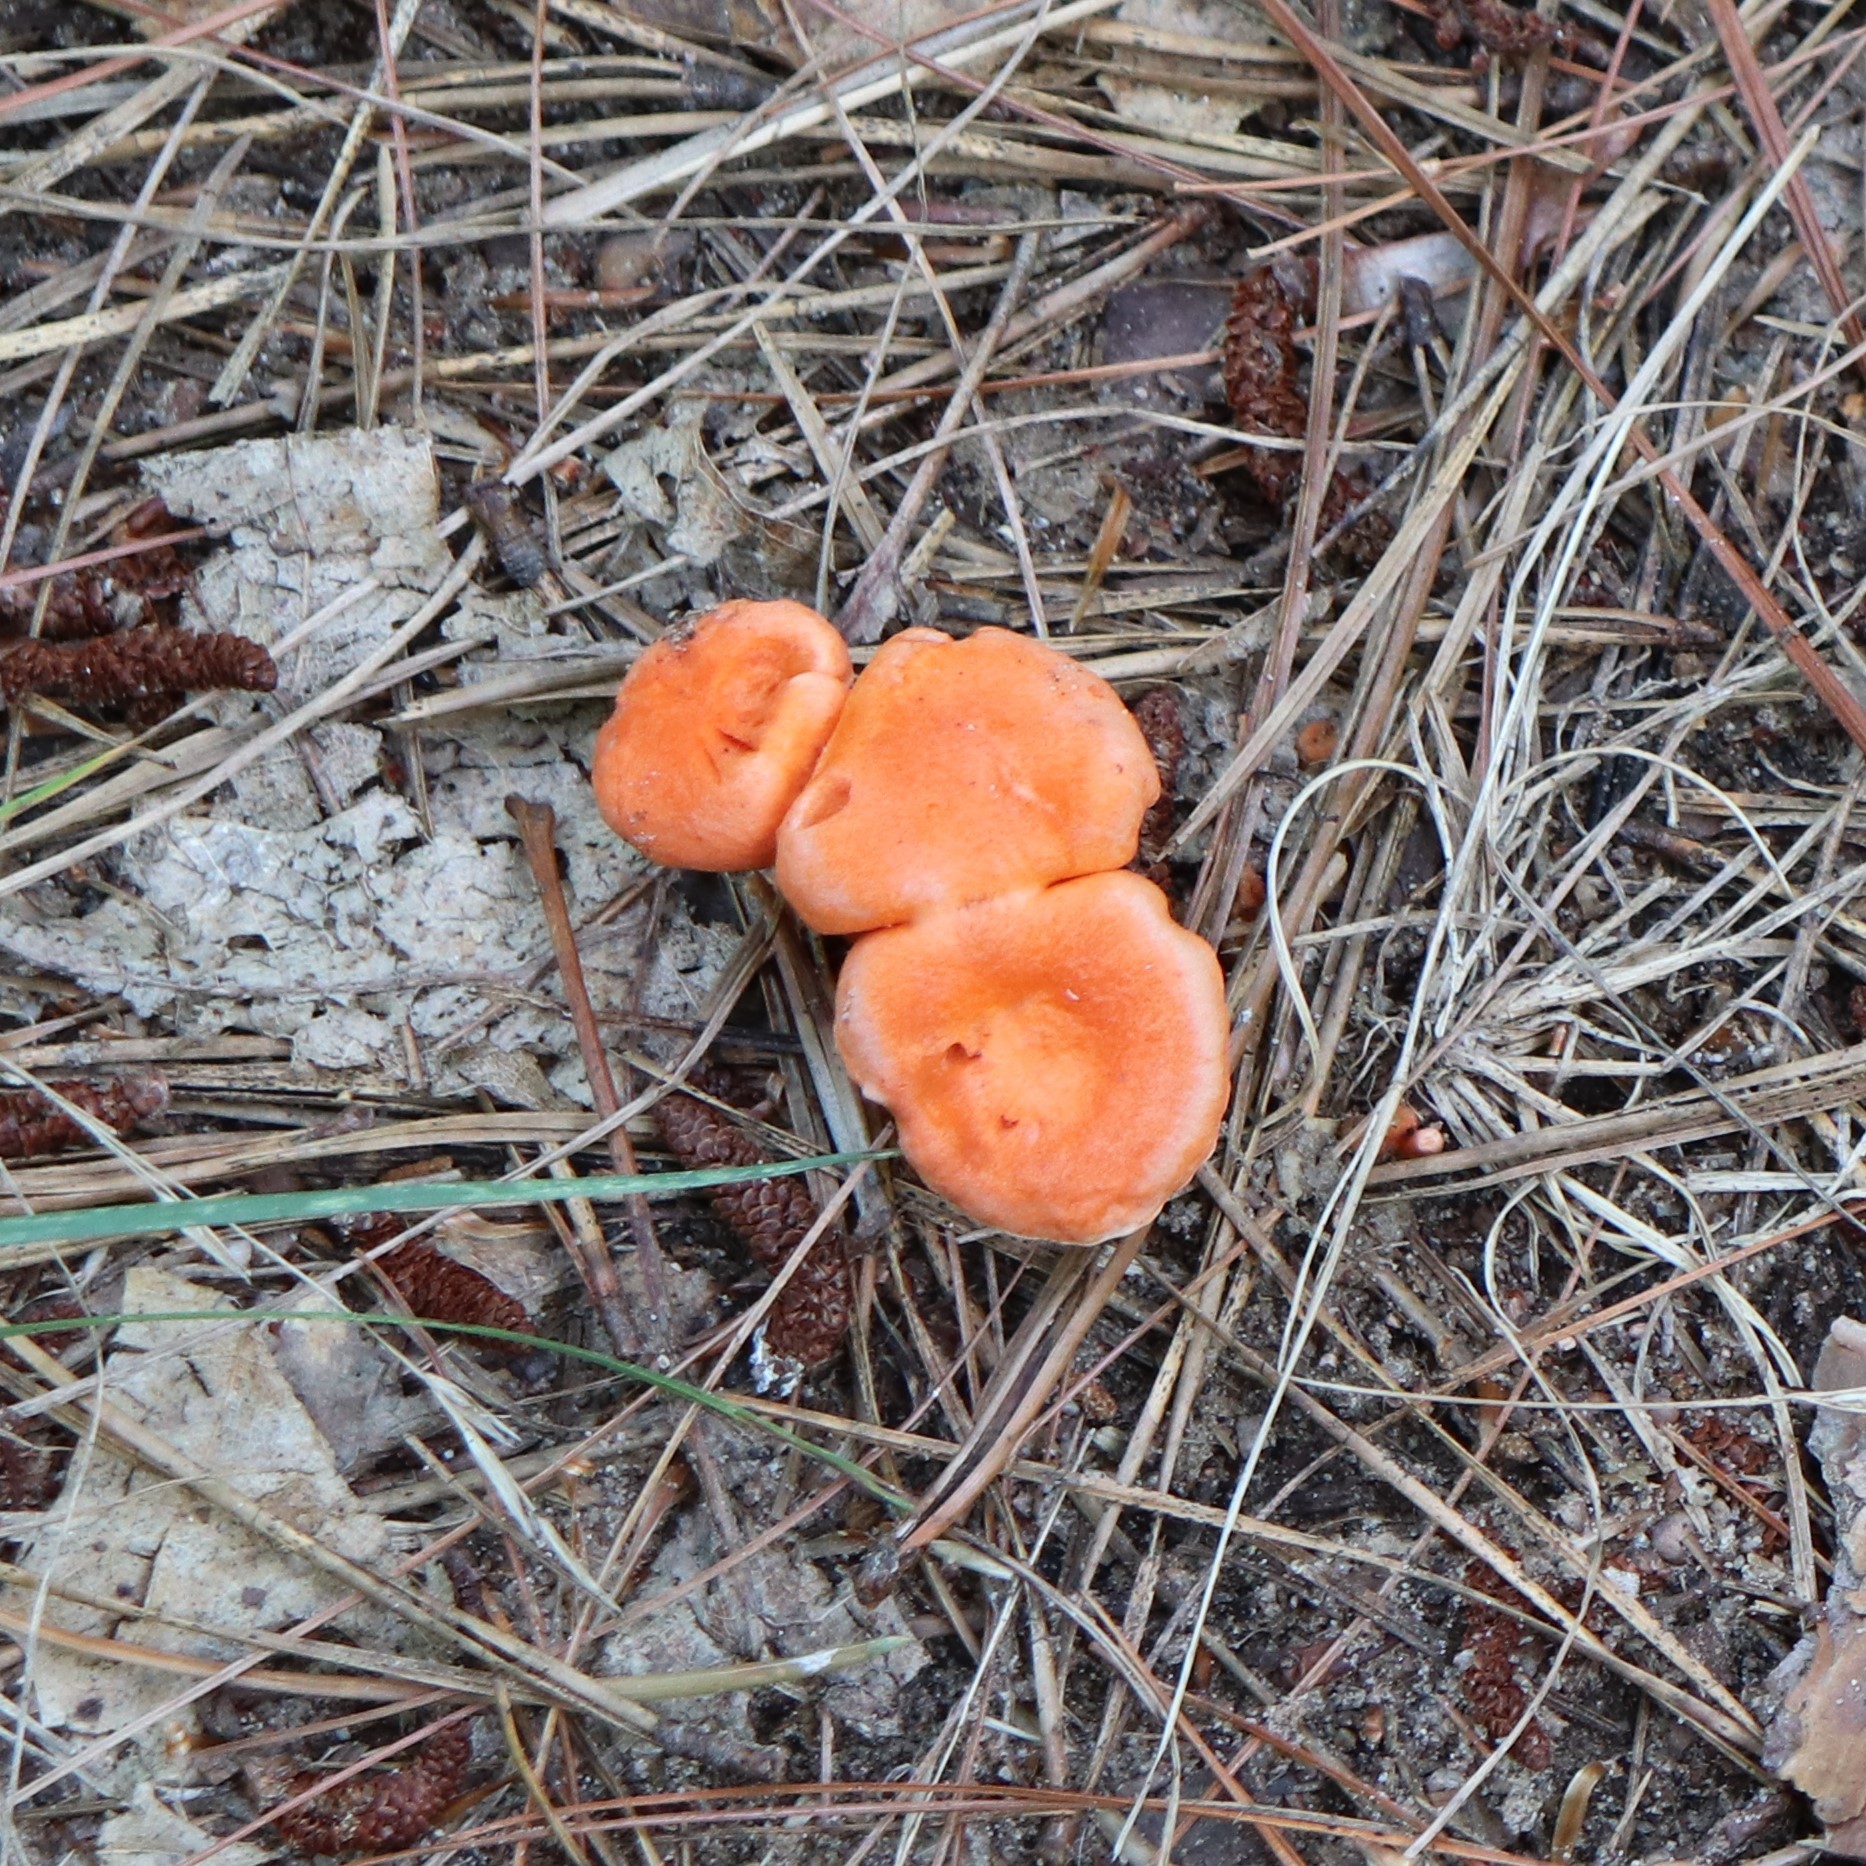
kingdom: Fungi
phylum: Basidiomycota
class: Agaricomycetes
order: Cantharellales
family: Hydnaceae
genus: Cantharellus
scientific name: Cantharellus cinnabarinus
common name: Cinnabar chanterelle
